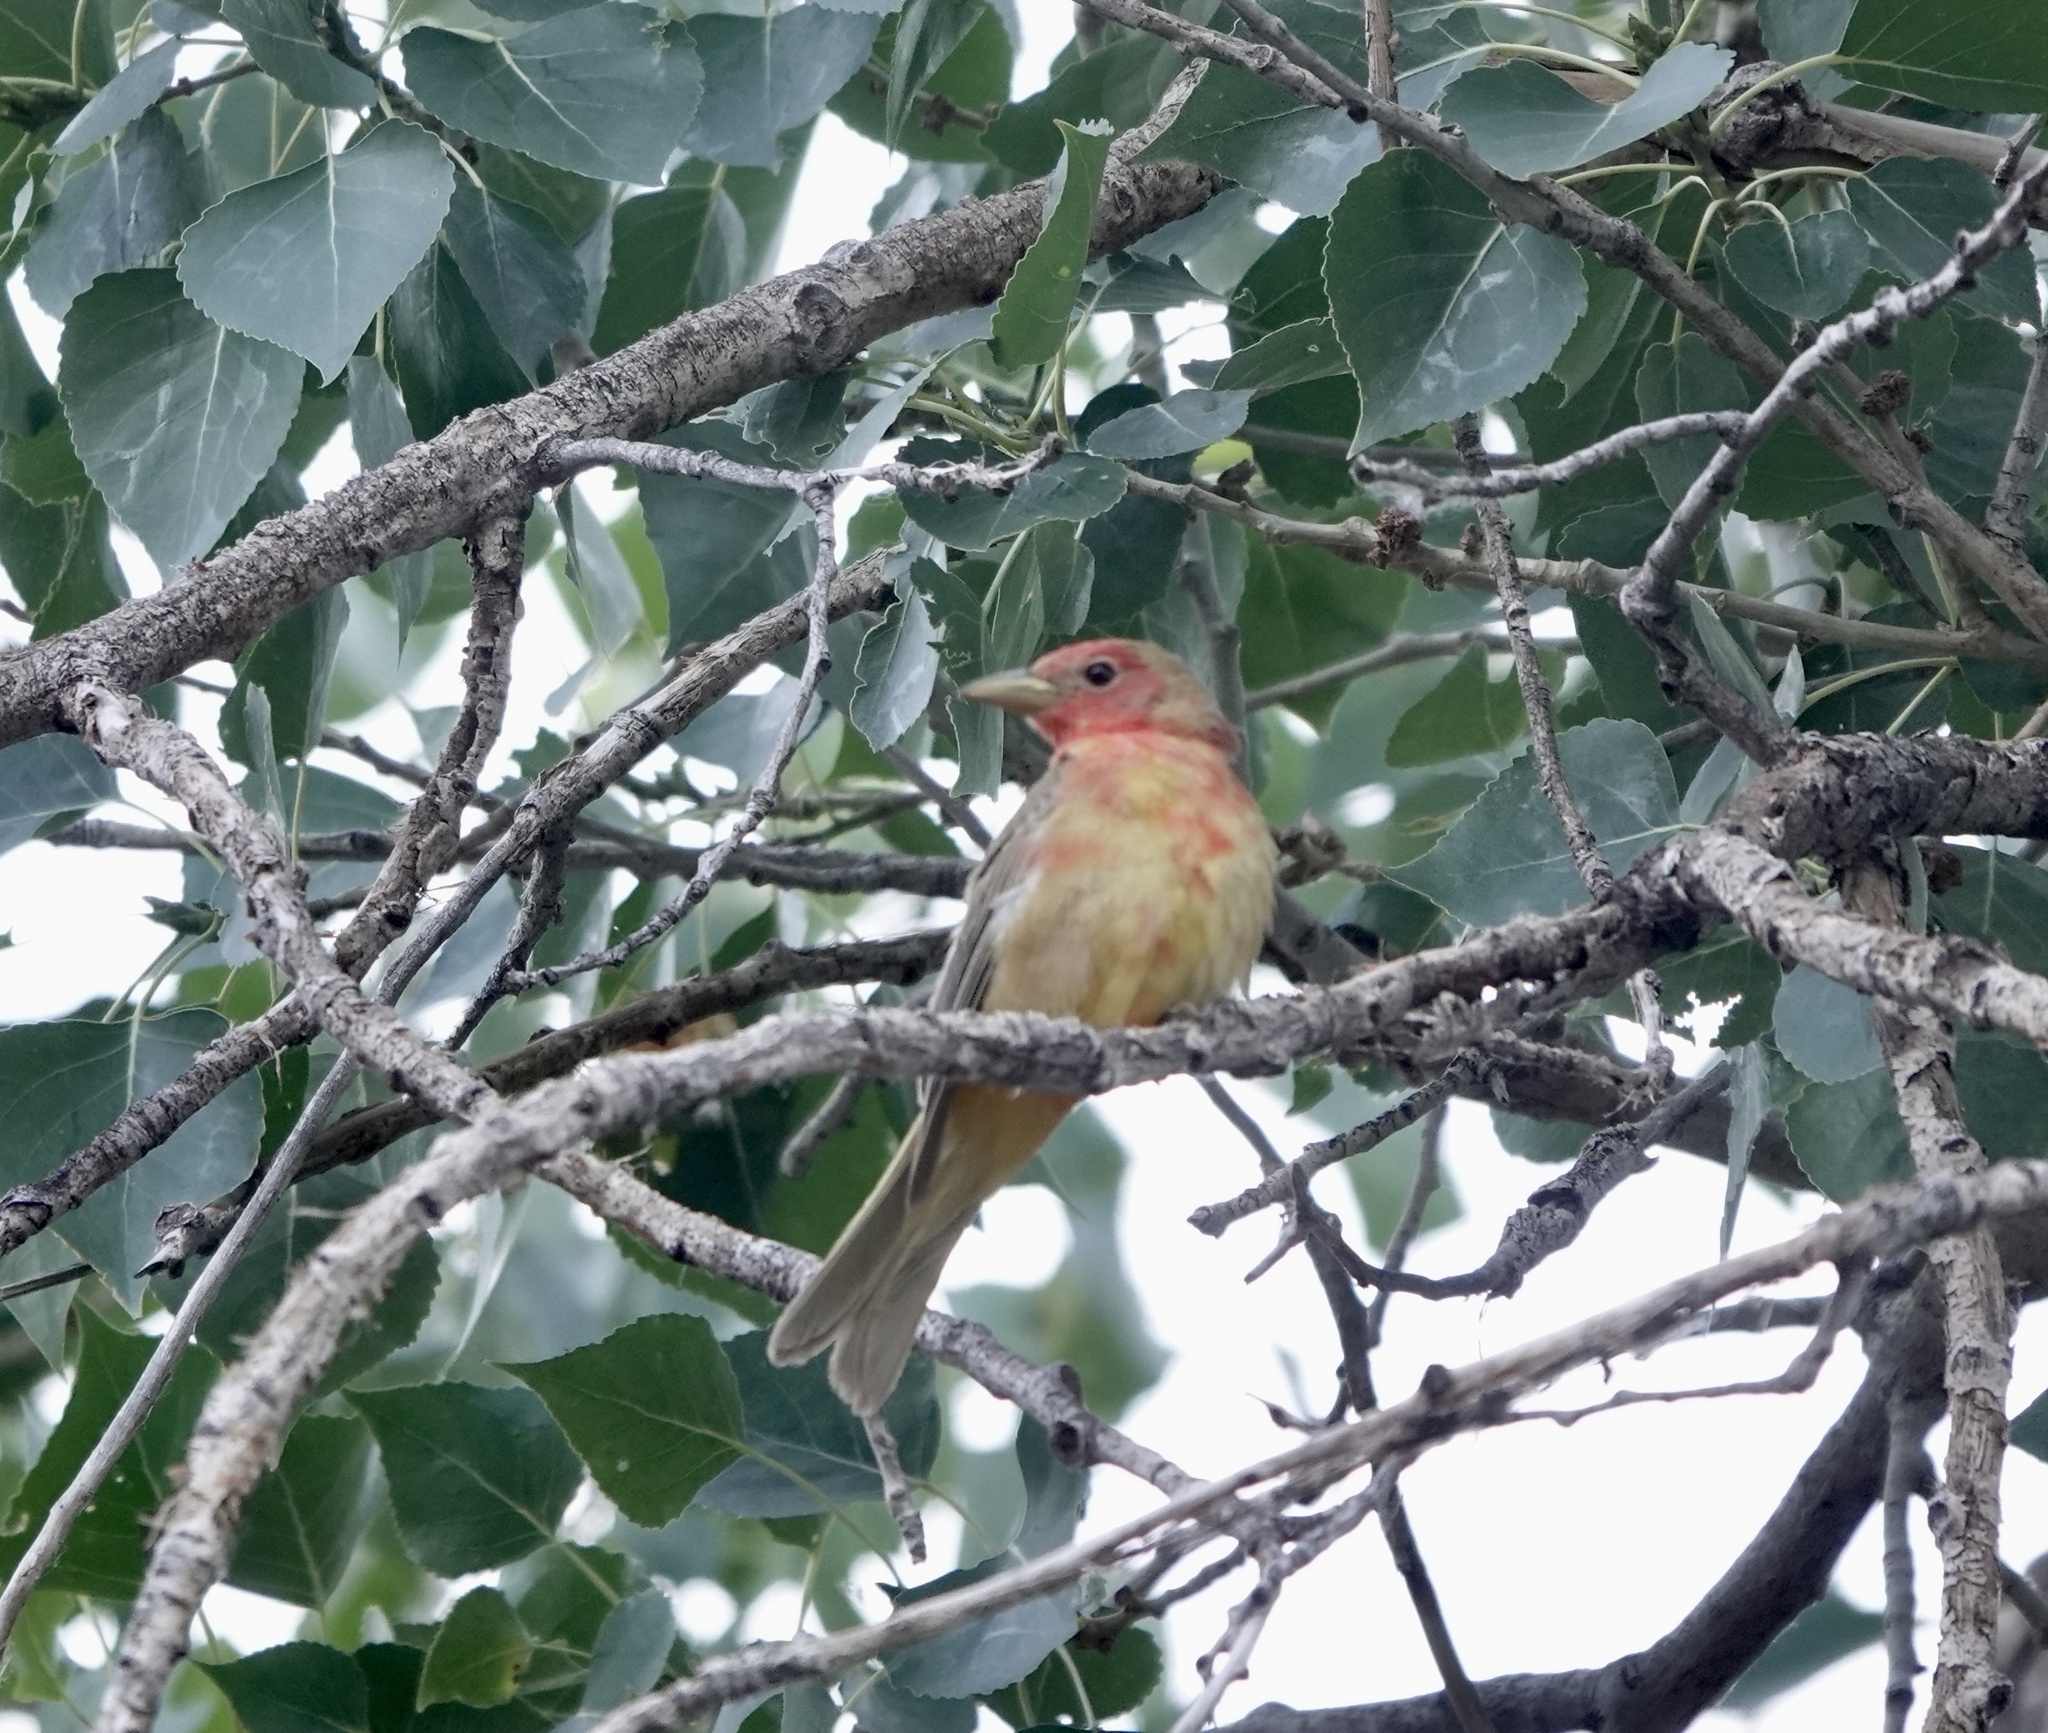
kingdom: Animalia
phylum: Chordata
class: Aves
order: Passeriformes
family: Cardinalidae
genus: Piranga
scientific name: Piranga rubra
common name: Summer tanager
